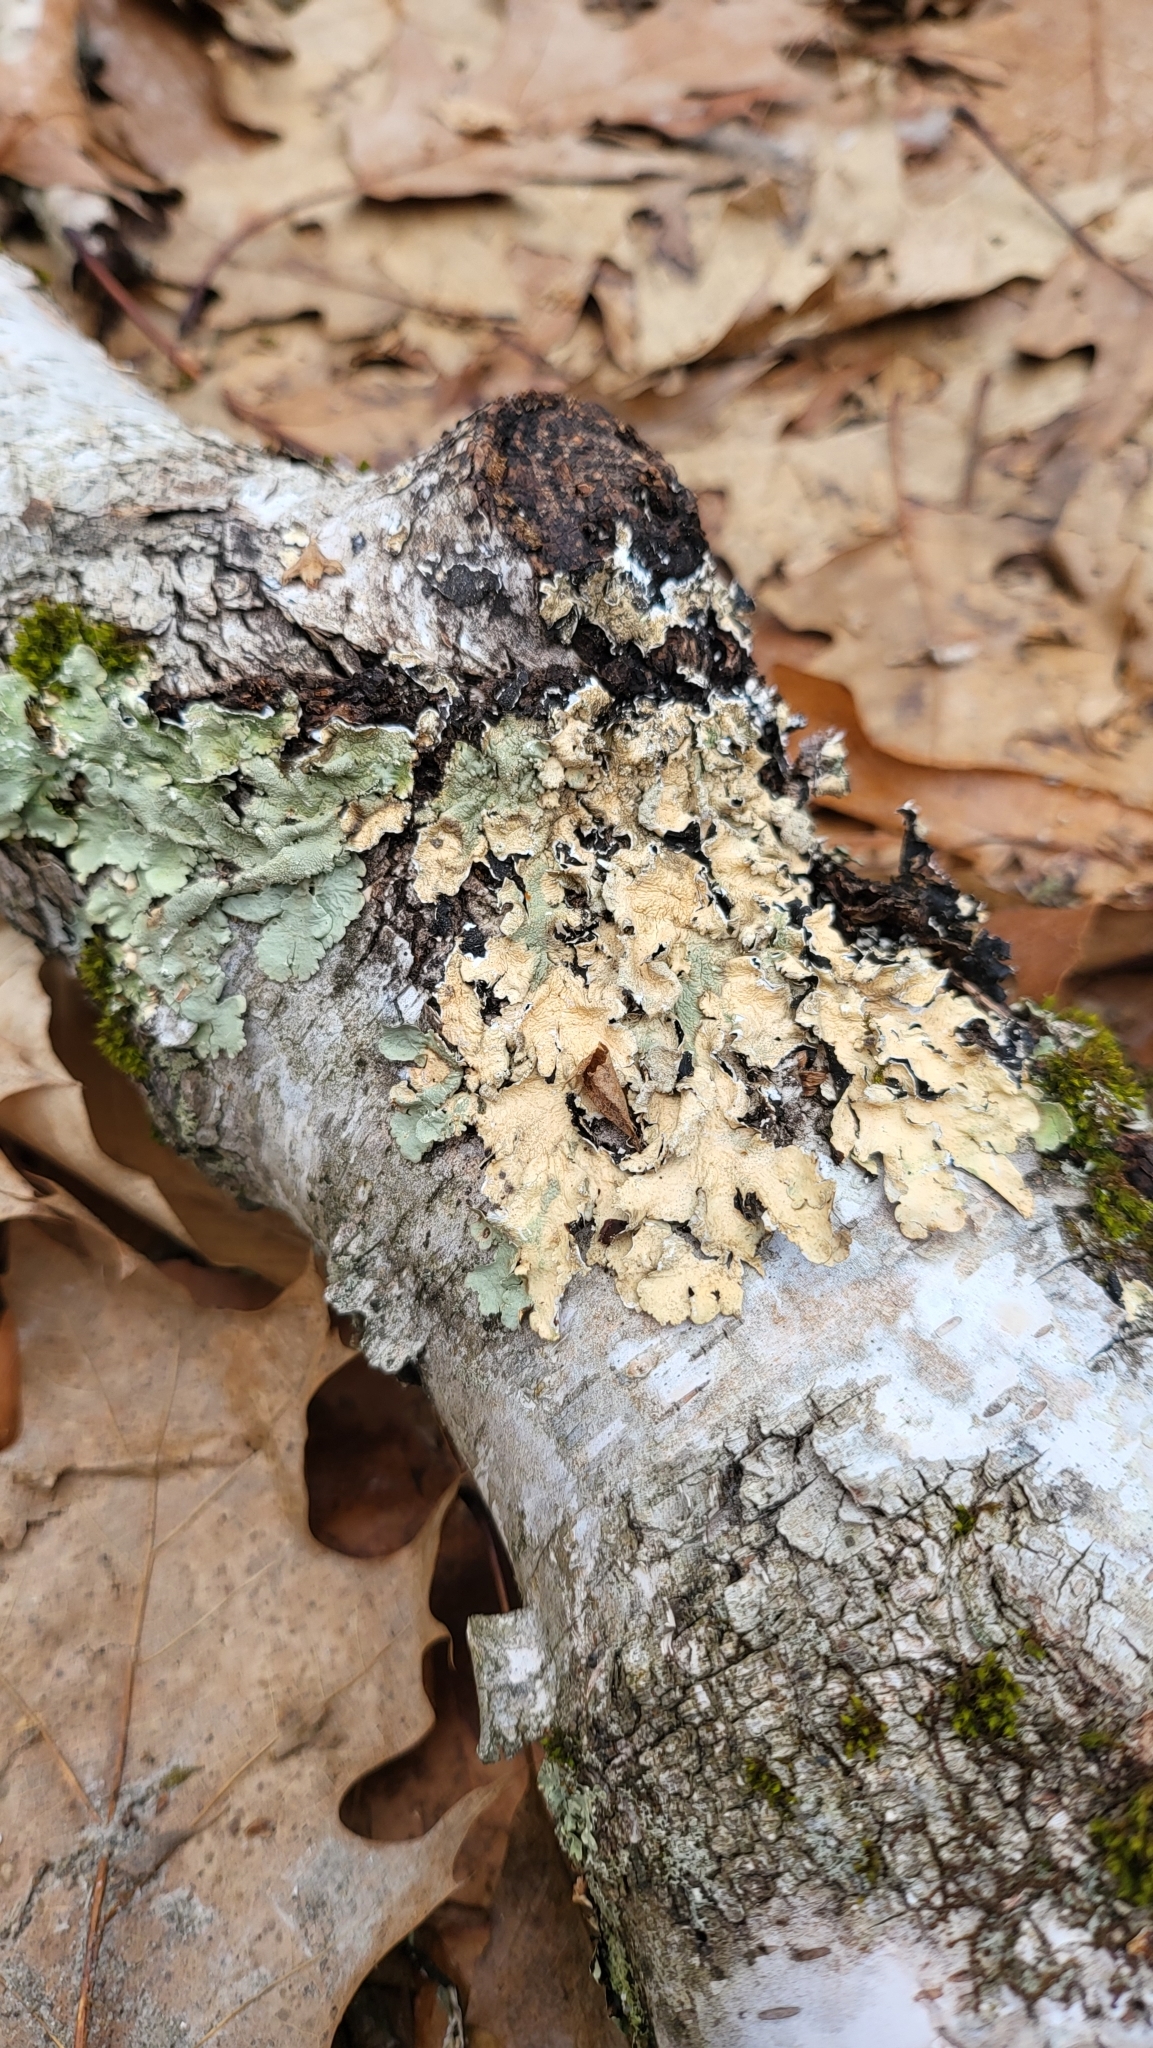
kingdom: Fungi
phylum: Ascomycota
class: Lecanoromycetes
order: Lecanorales
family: Parmeliaceae
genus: Flavoparmelia
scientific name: Flavoparmelia caperata
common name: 40-mile per hour lichen
